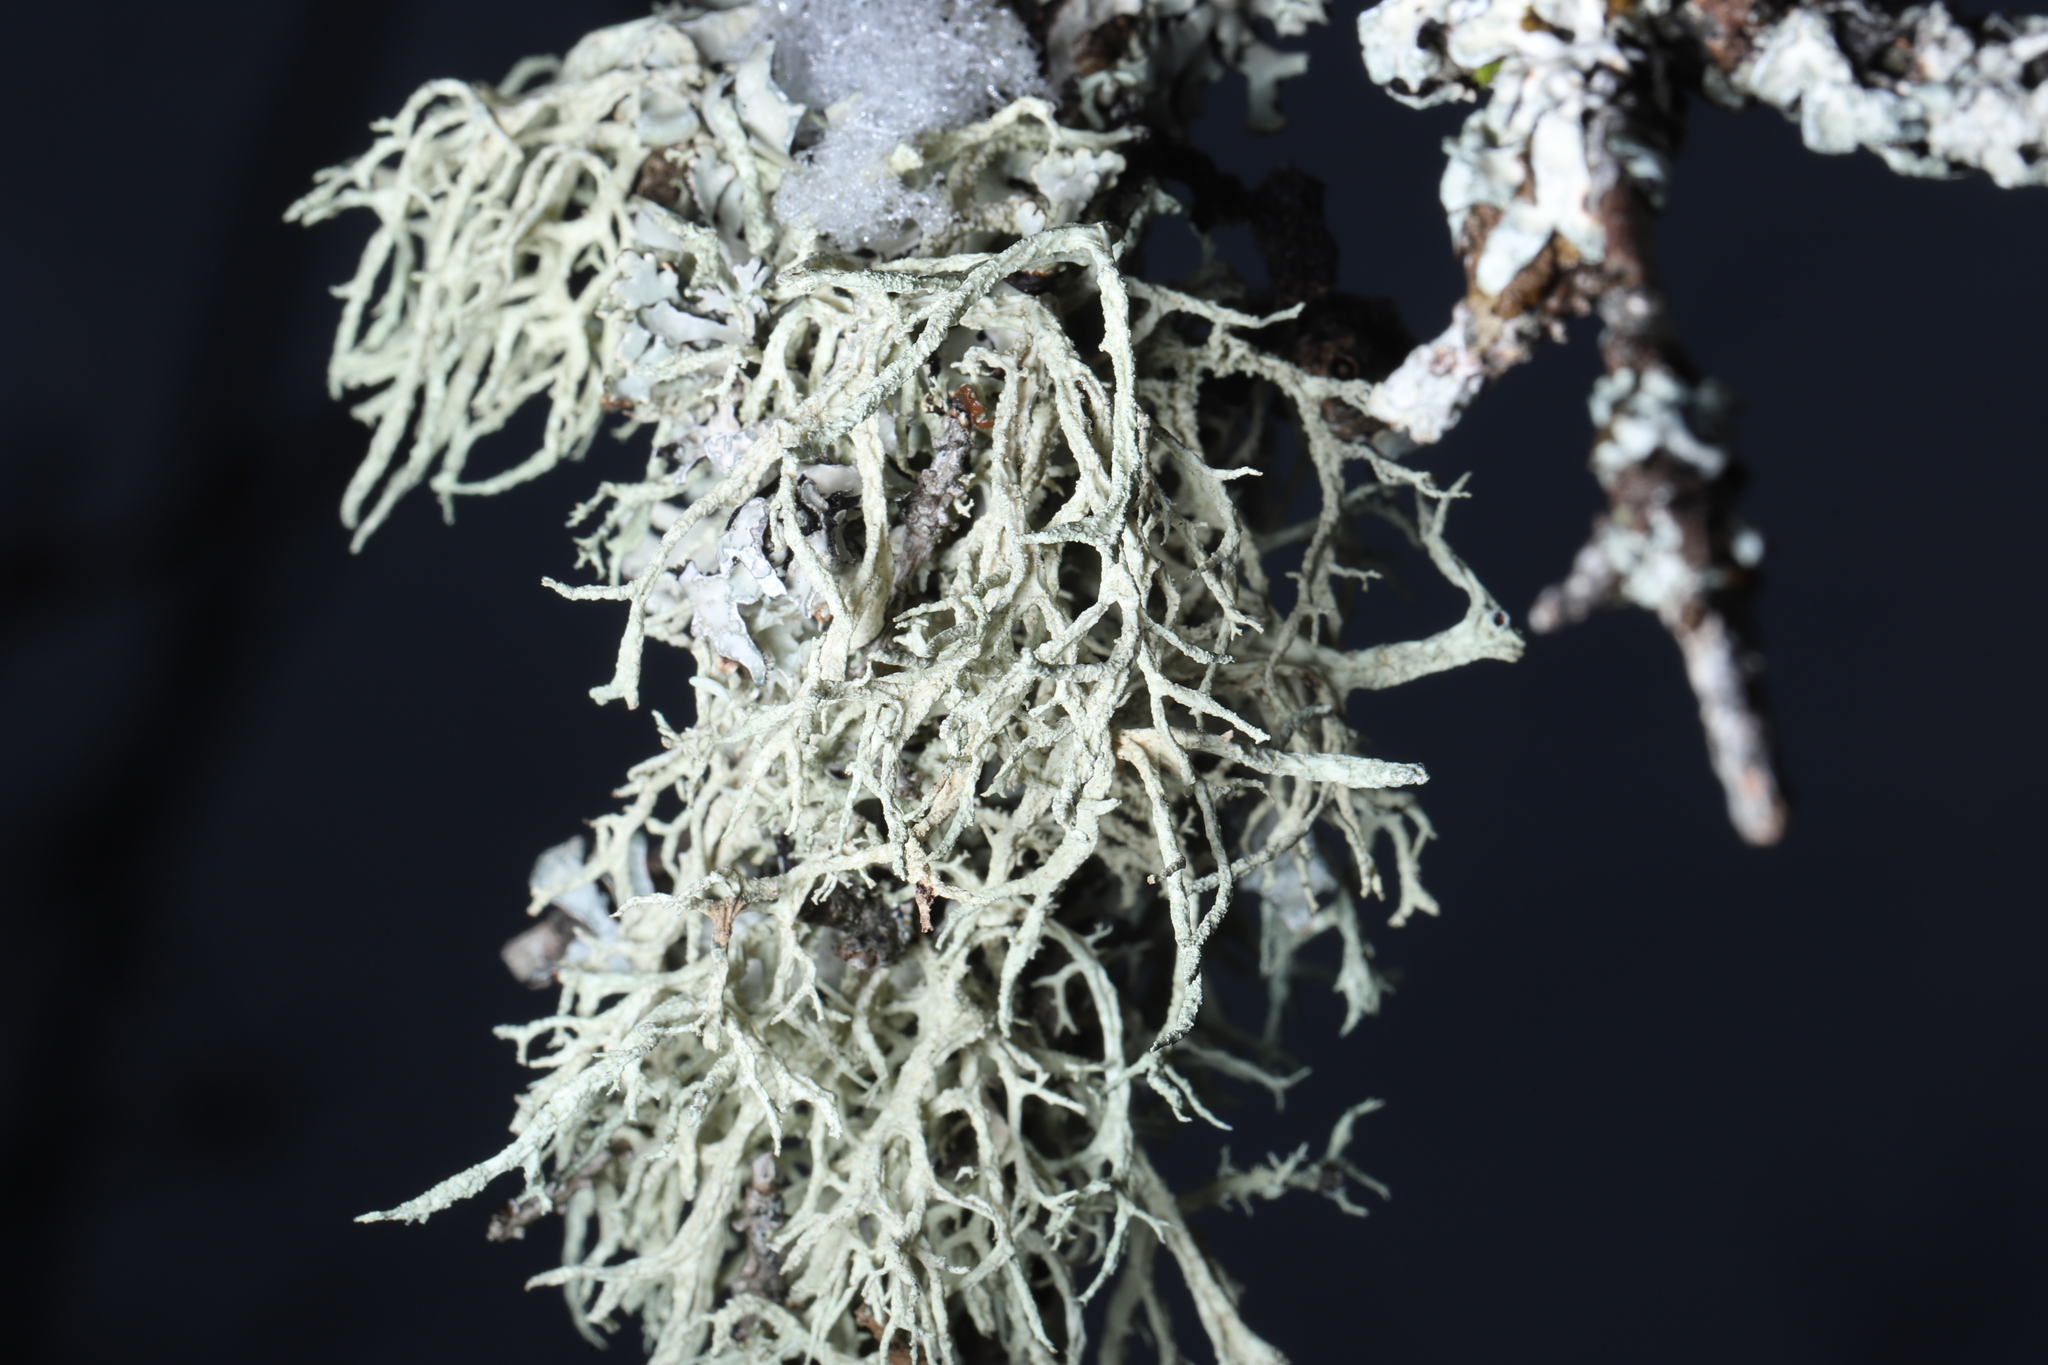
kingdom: Fungi
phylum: Ascomycota
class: Lecanoromycetes
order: Lecanorales
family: Parmeliaceae
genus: Evernia
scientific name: Evernia mesomorpha
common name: Boreal oak moss lichen
